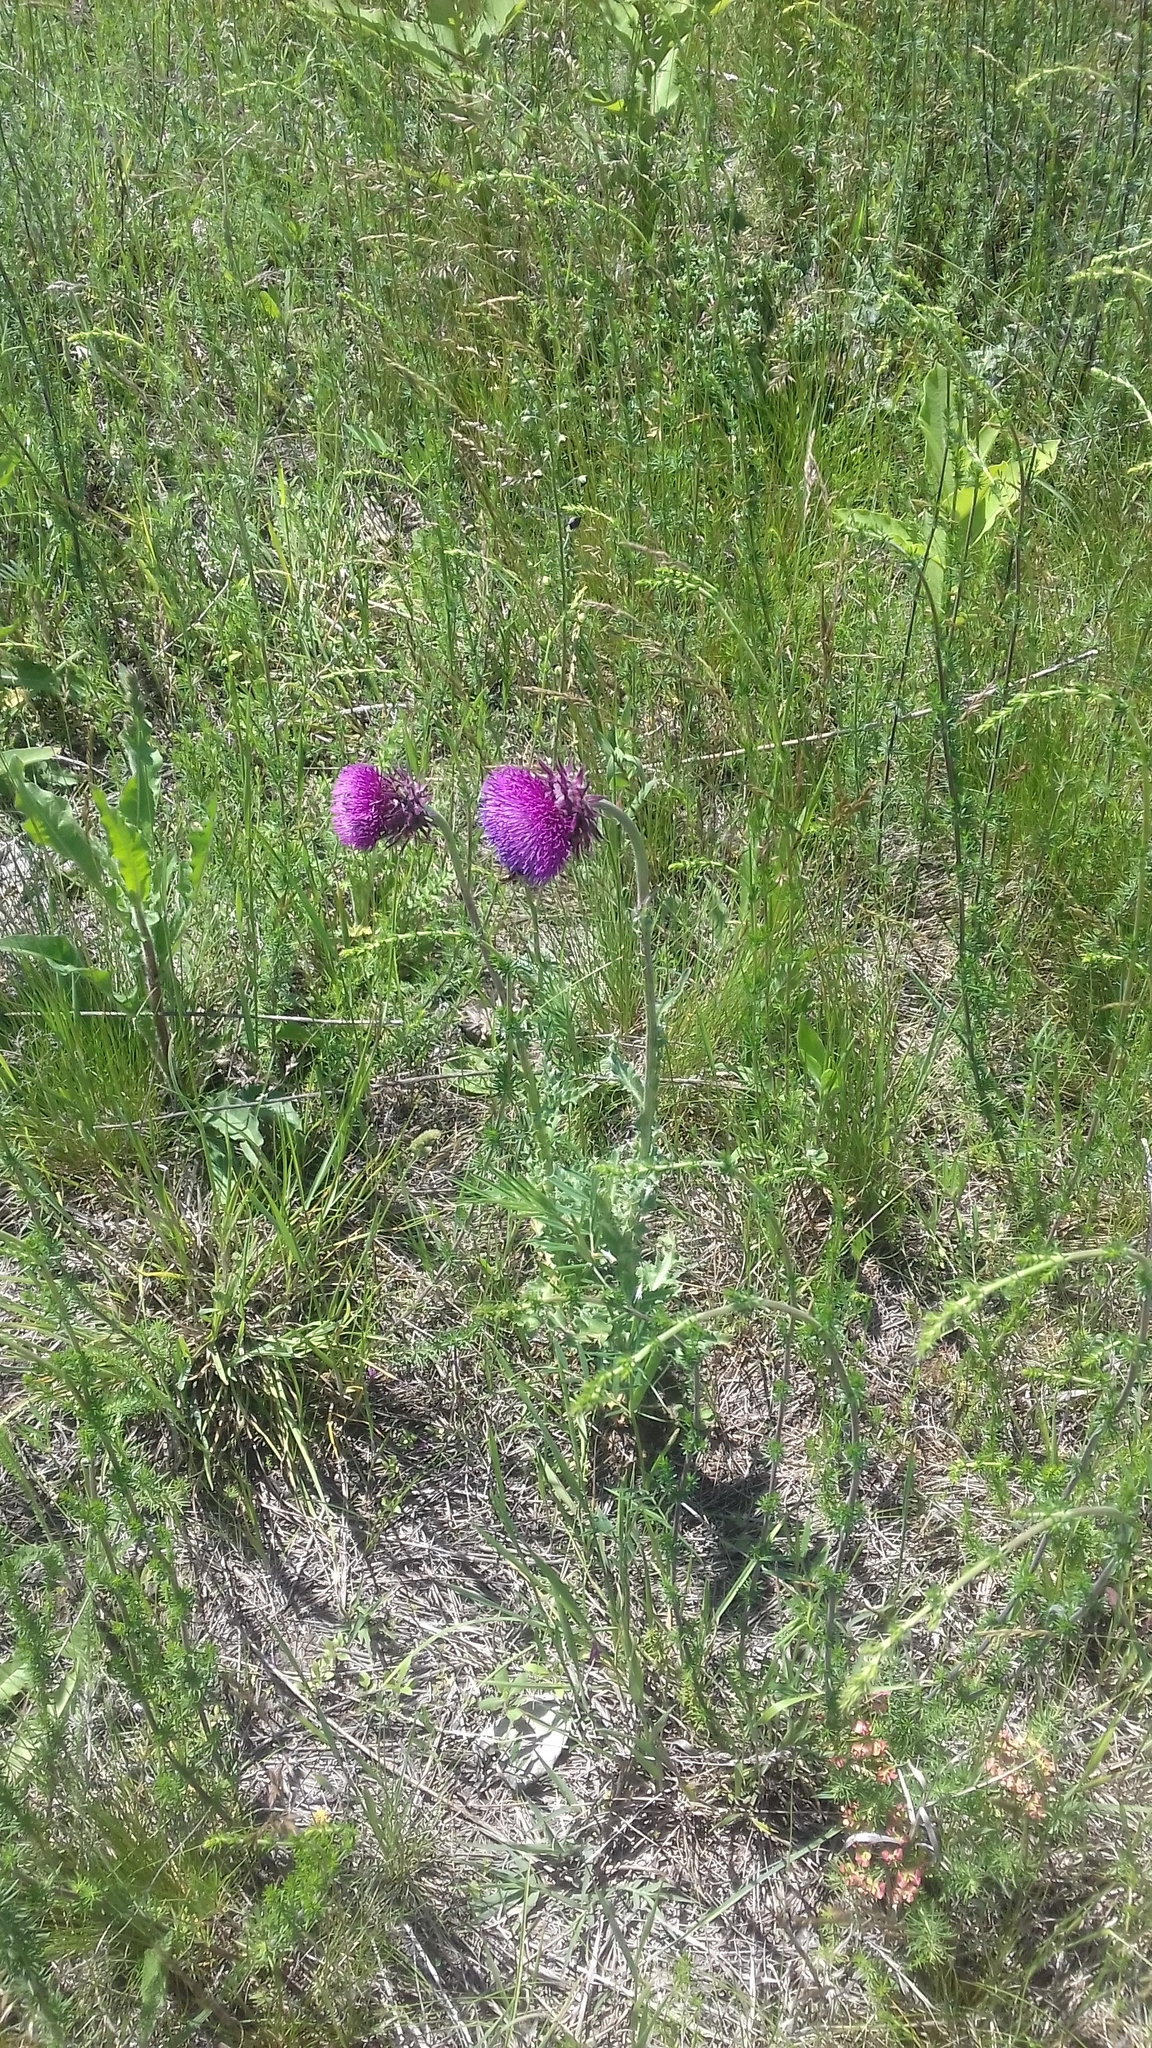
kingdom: Plantae
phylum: Tracheophyta
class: Magnoliopsida
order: Asterales
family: Asteraceae
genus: Carduus
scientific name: Carduus nutans
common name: Musk thistle
